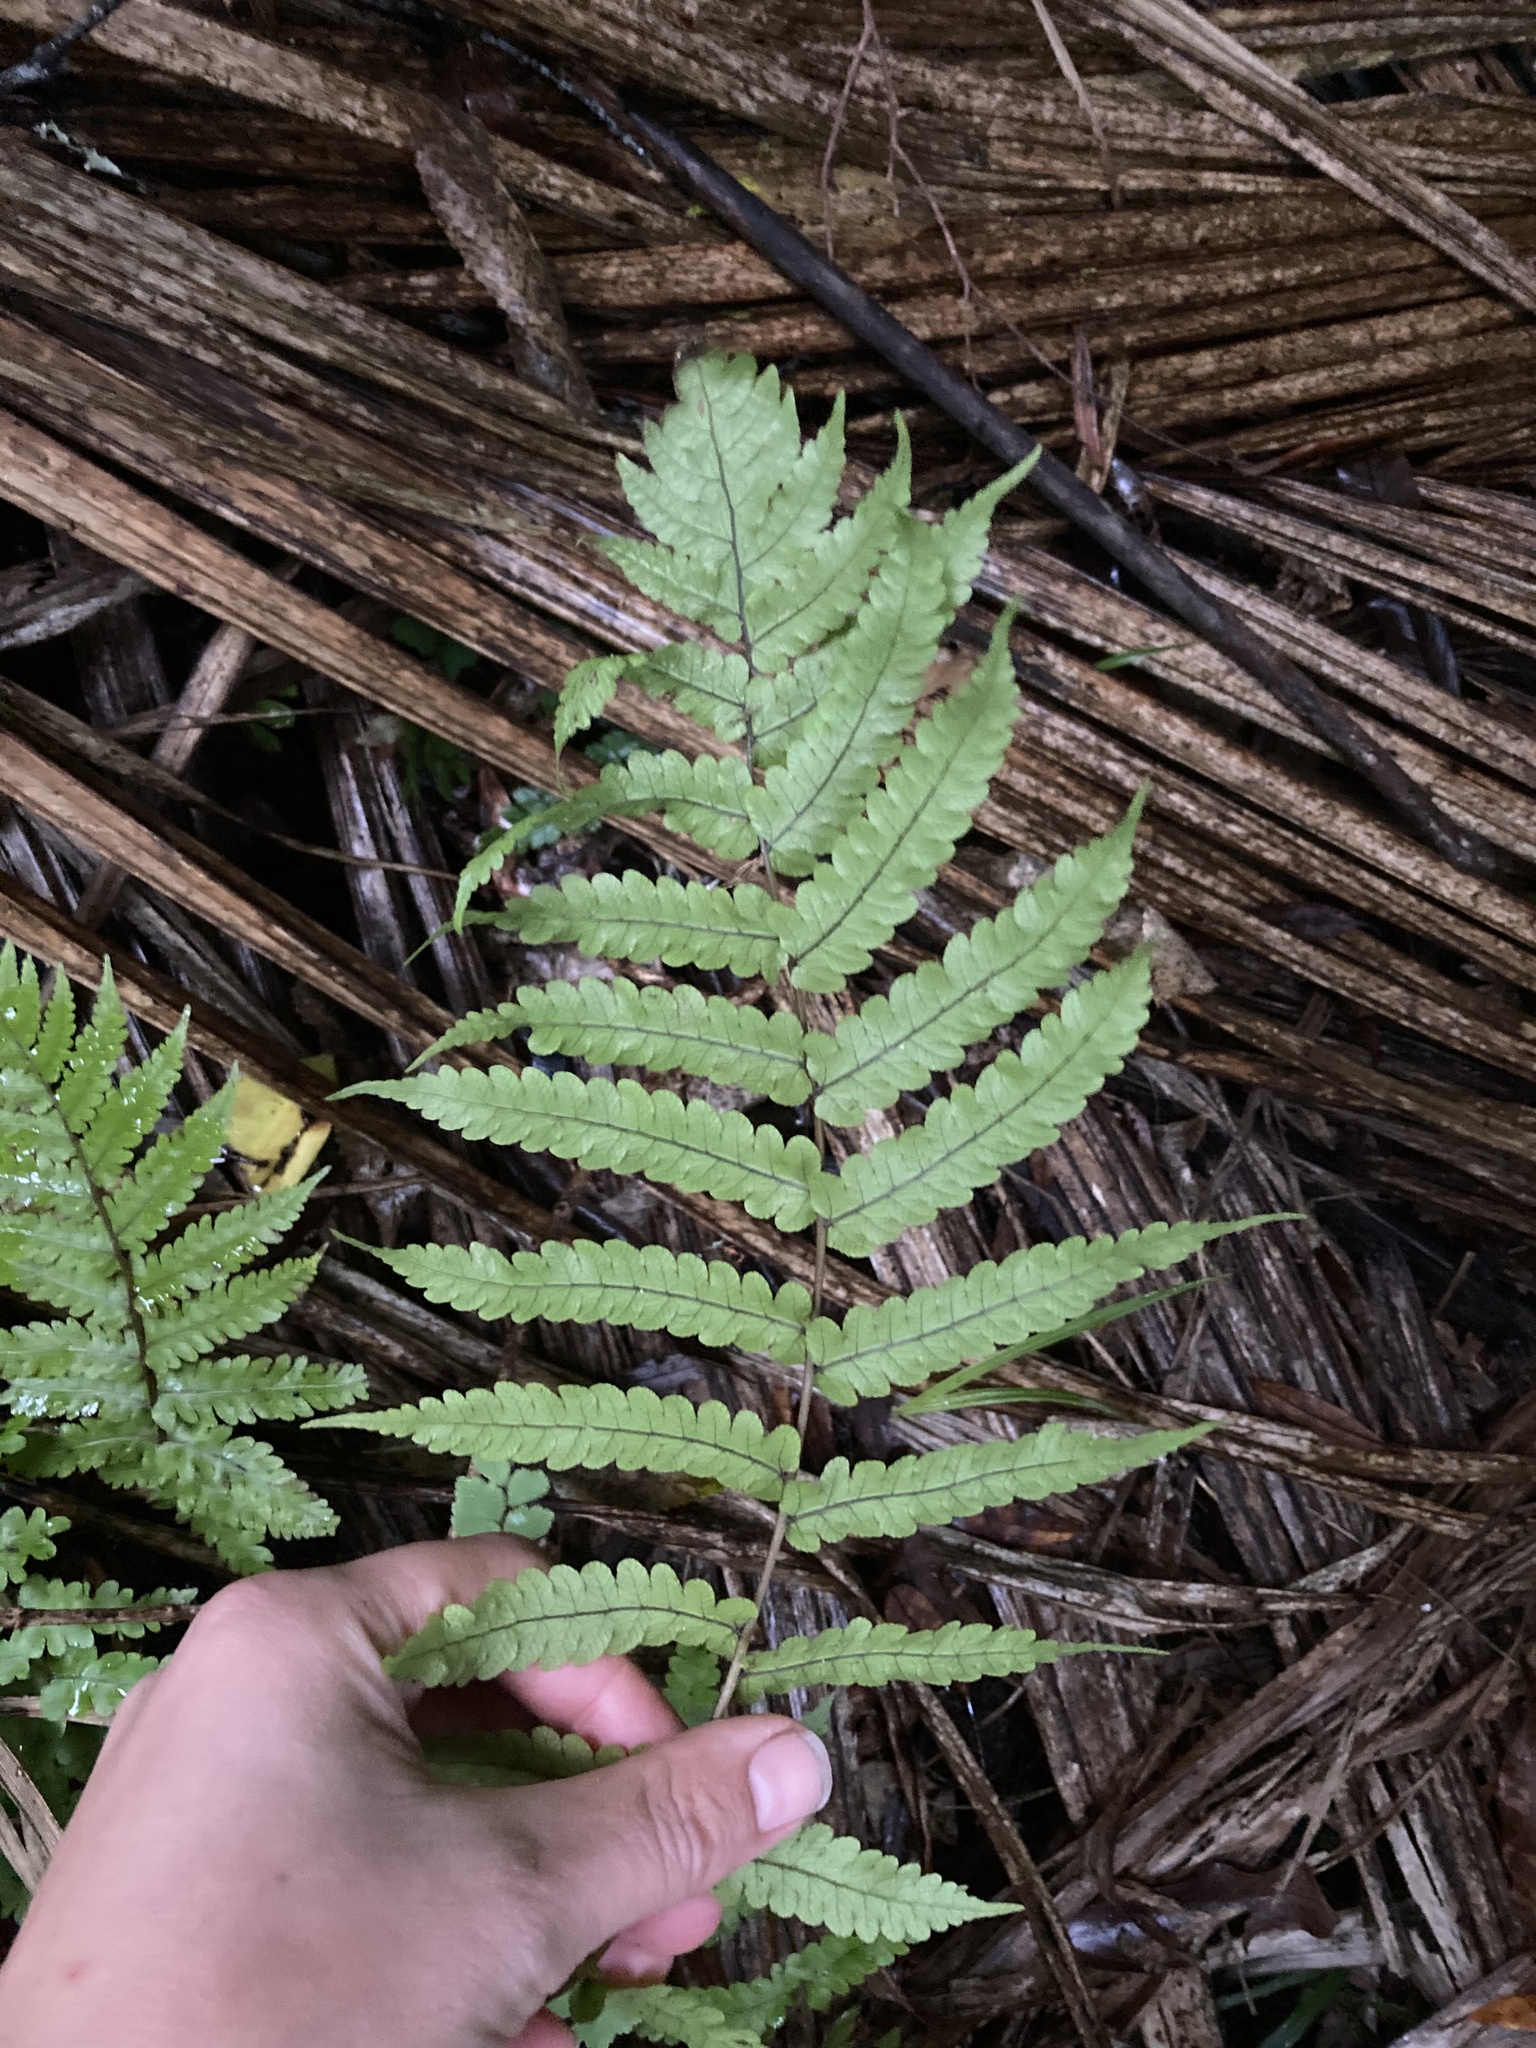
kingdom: Plantae
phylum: Tracheophyta
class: Polypodiopsida
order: Polypodiales
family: Thelypteridaceae
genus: Pakau
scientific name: Pakau pennigera
